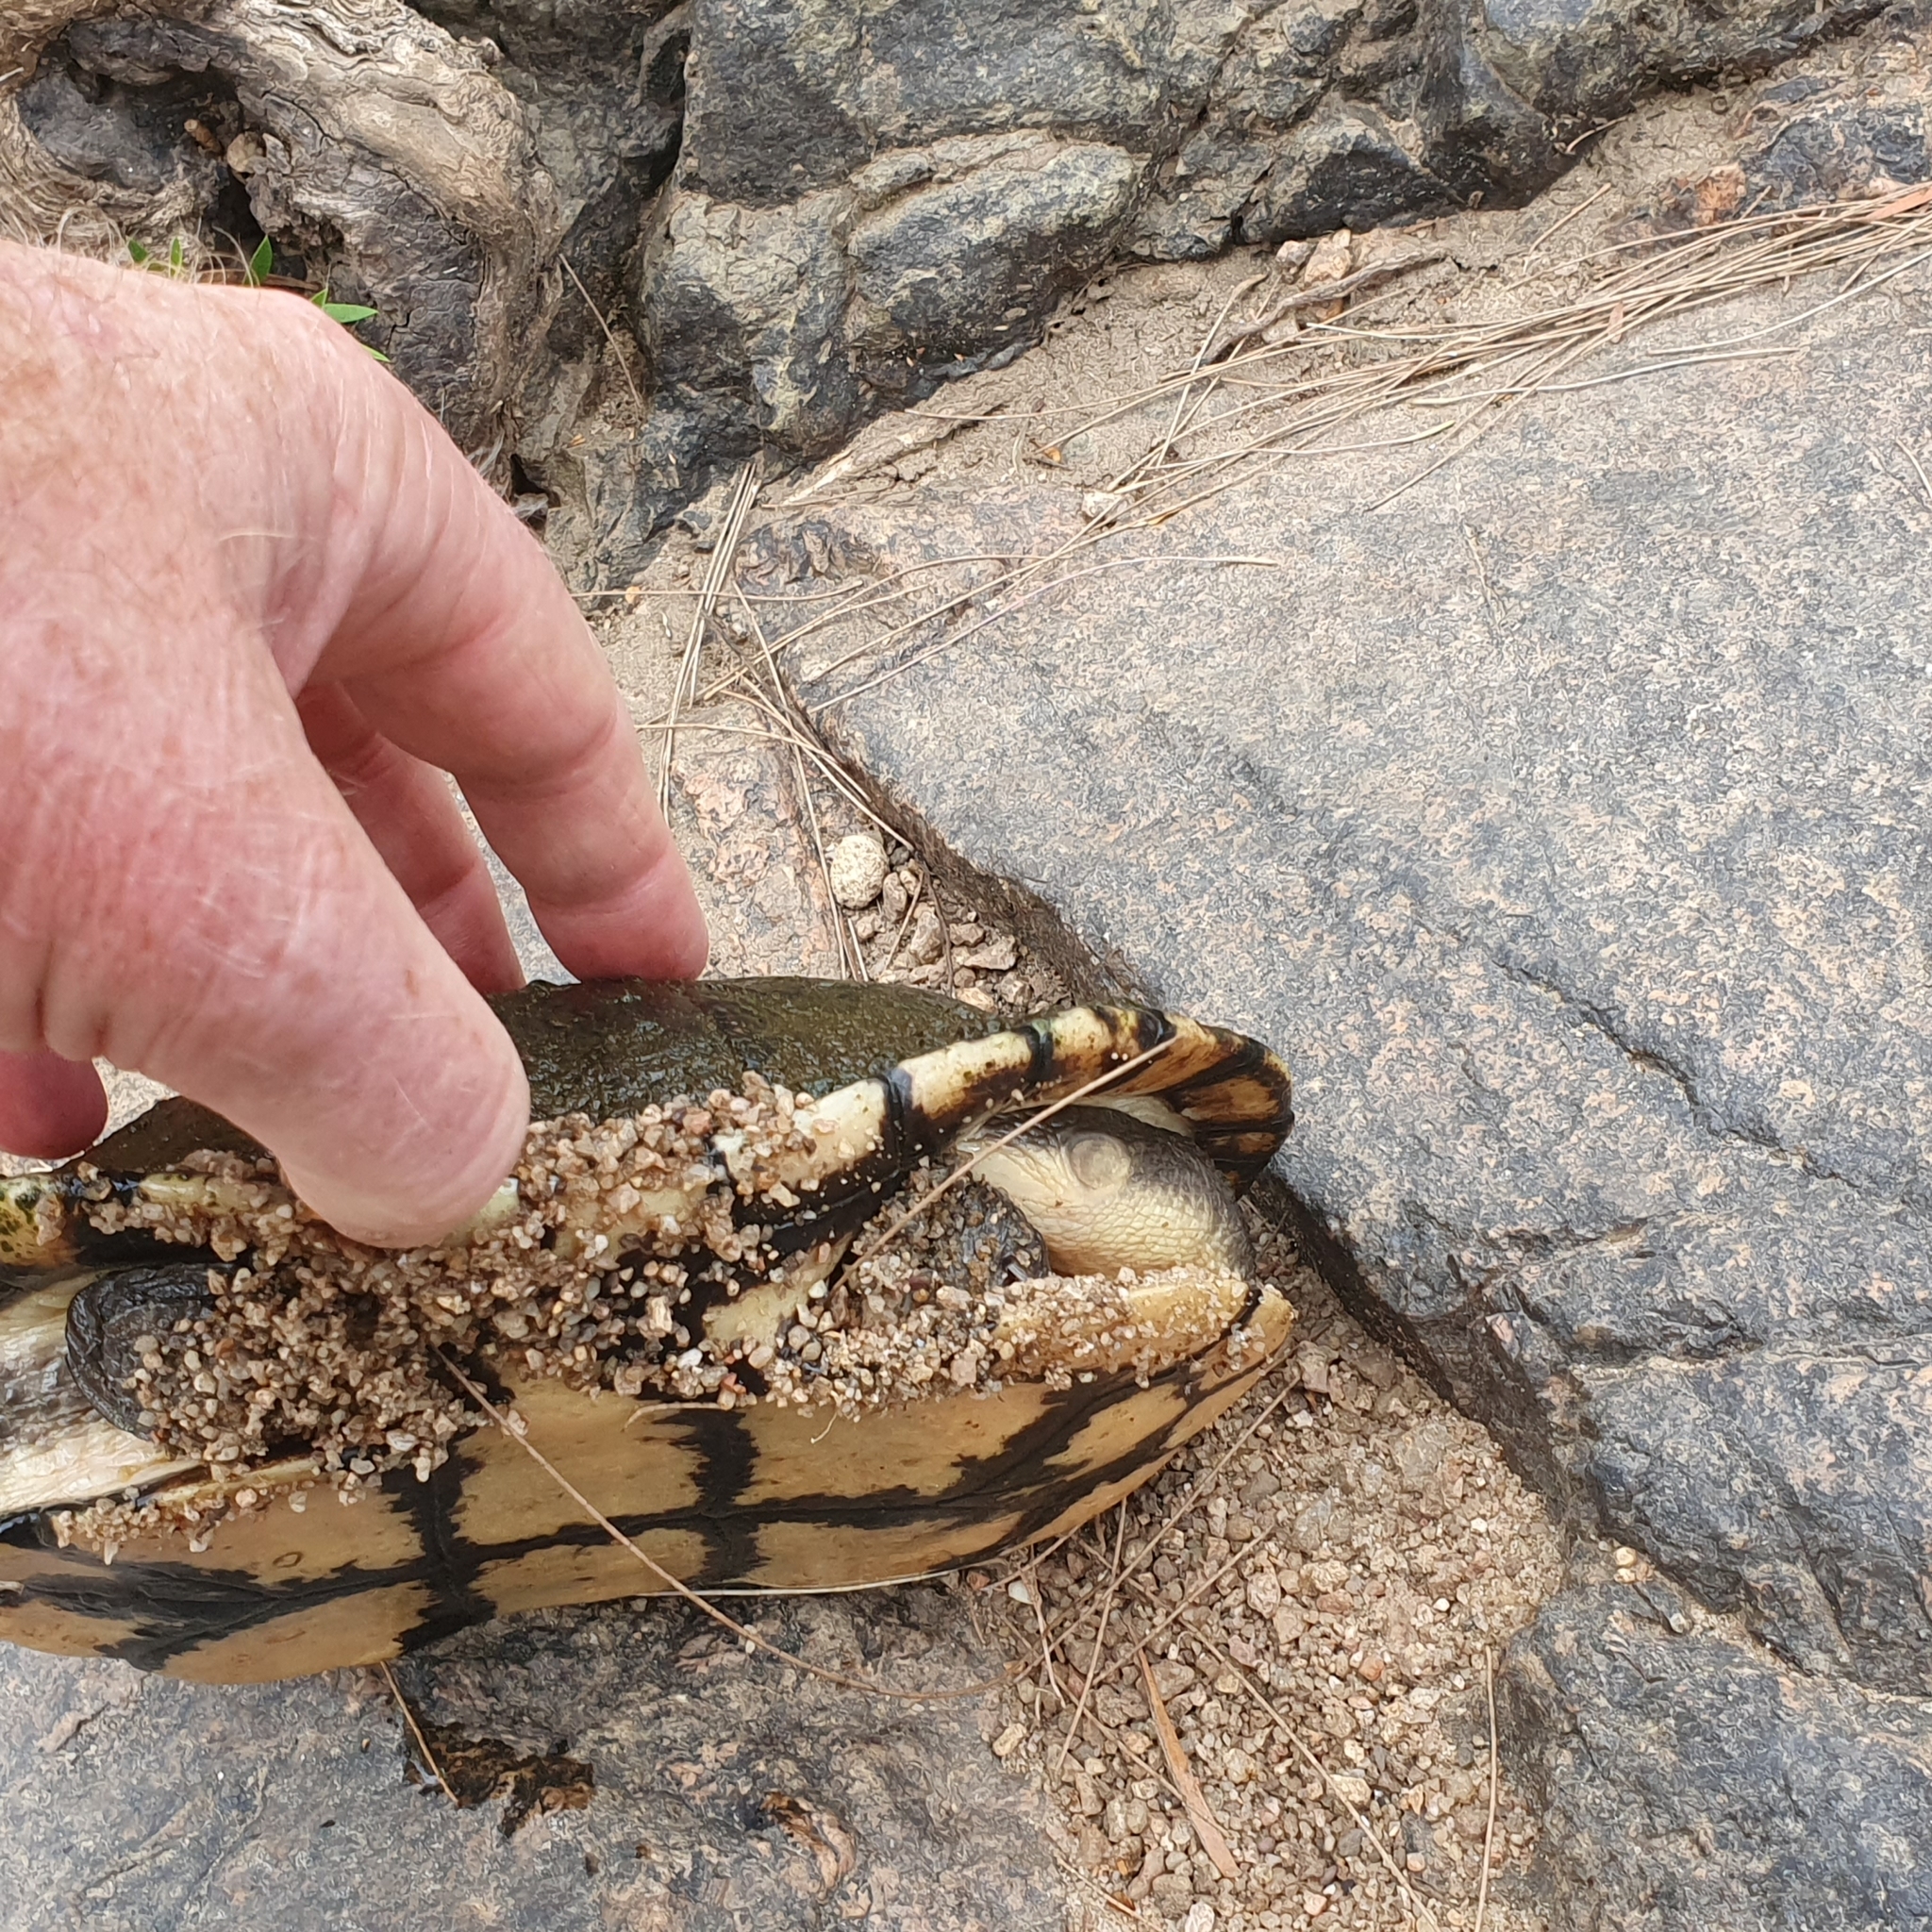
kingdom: Animalia
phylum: Chordata
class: Testudines
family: Chelidae
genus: Chelodina
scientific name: Chelodina longicollis
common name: Eastern snake-necked turtle
